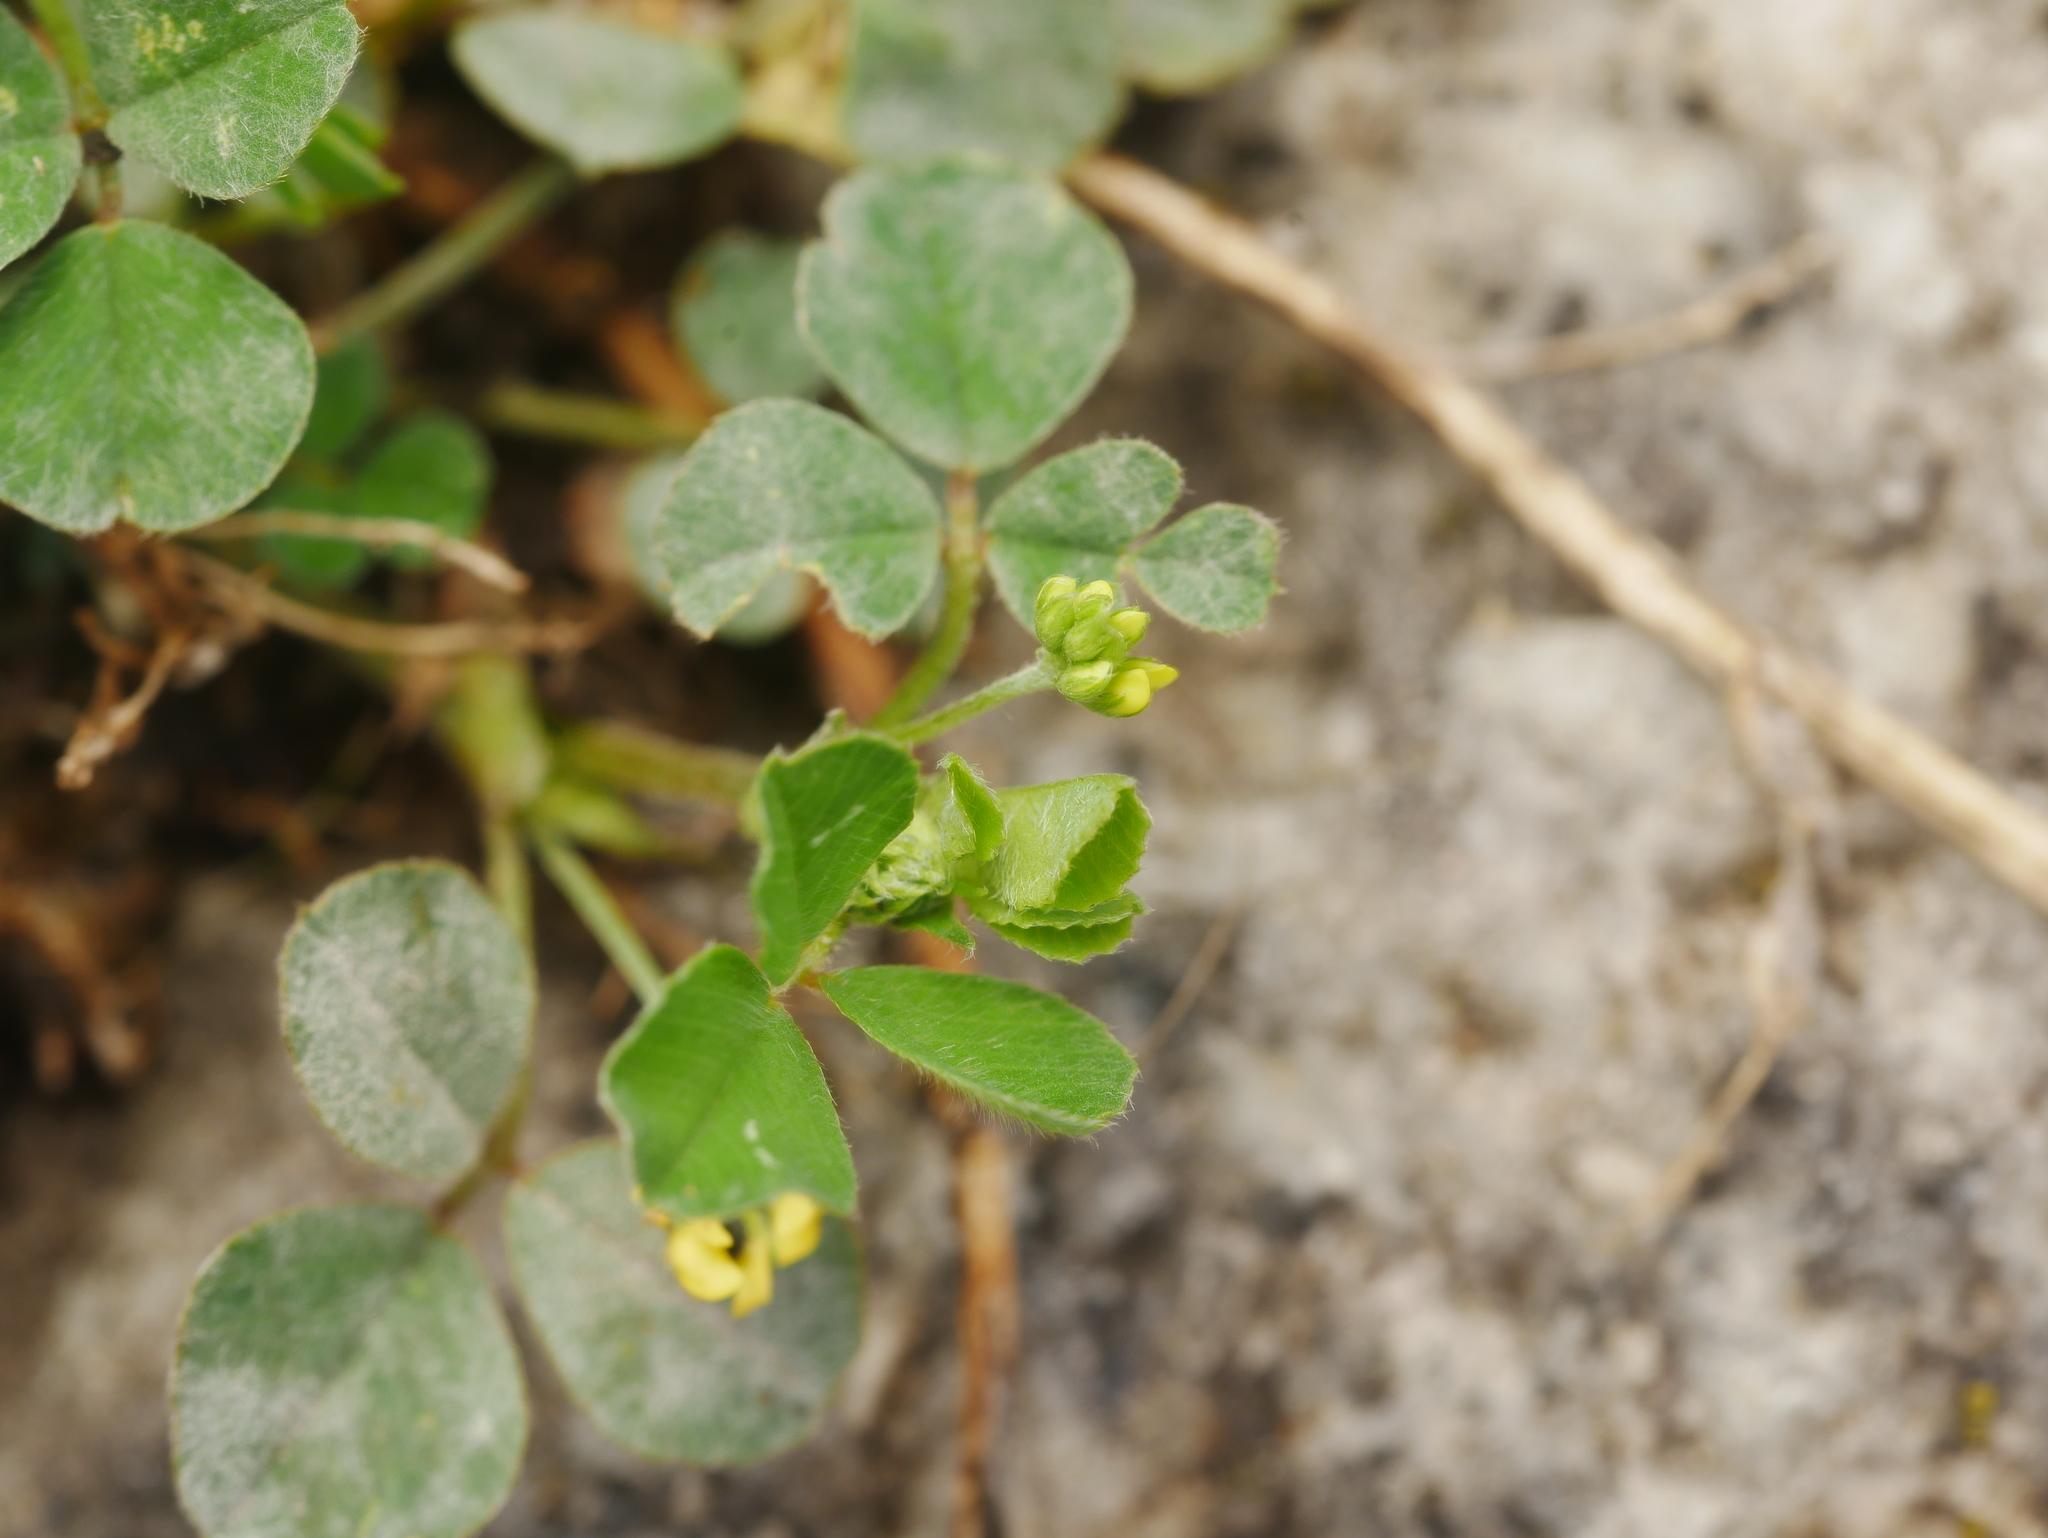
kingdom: Plantae
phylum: Tracheophyta
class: Magnoliopsida
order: Fabales
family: Fabaceae
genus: Medicago
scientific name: Medicago lupulina
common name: Black medick
